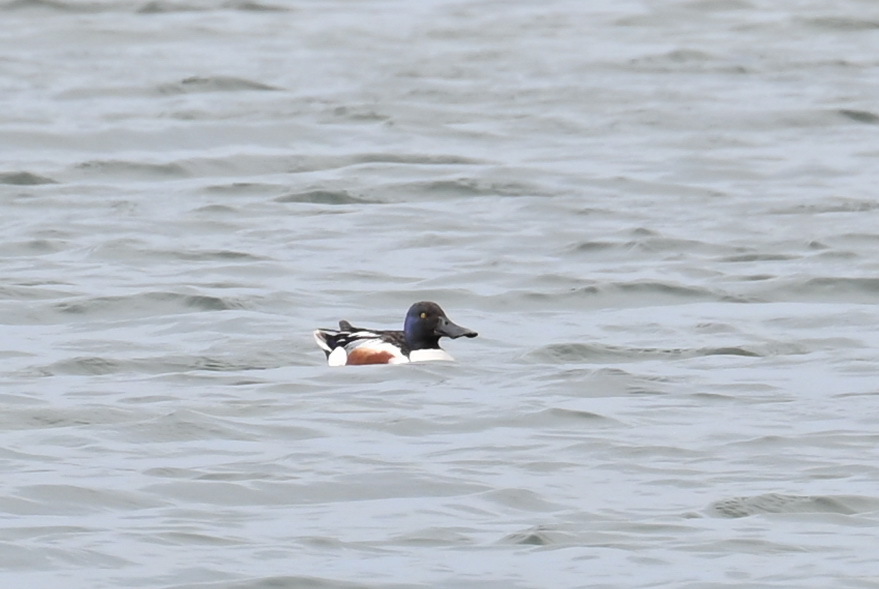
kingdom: Animalia
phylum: Chordata
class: Aves
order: Anseriformes
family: Anatidae
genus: Spatula
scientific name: Spatula clypeata
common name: Northern shoveler
